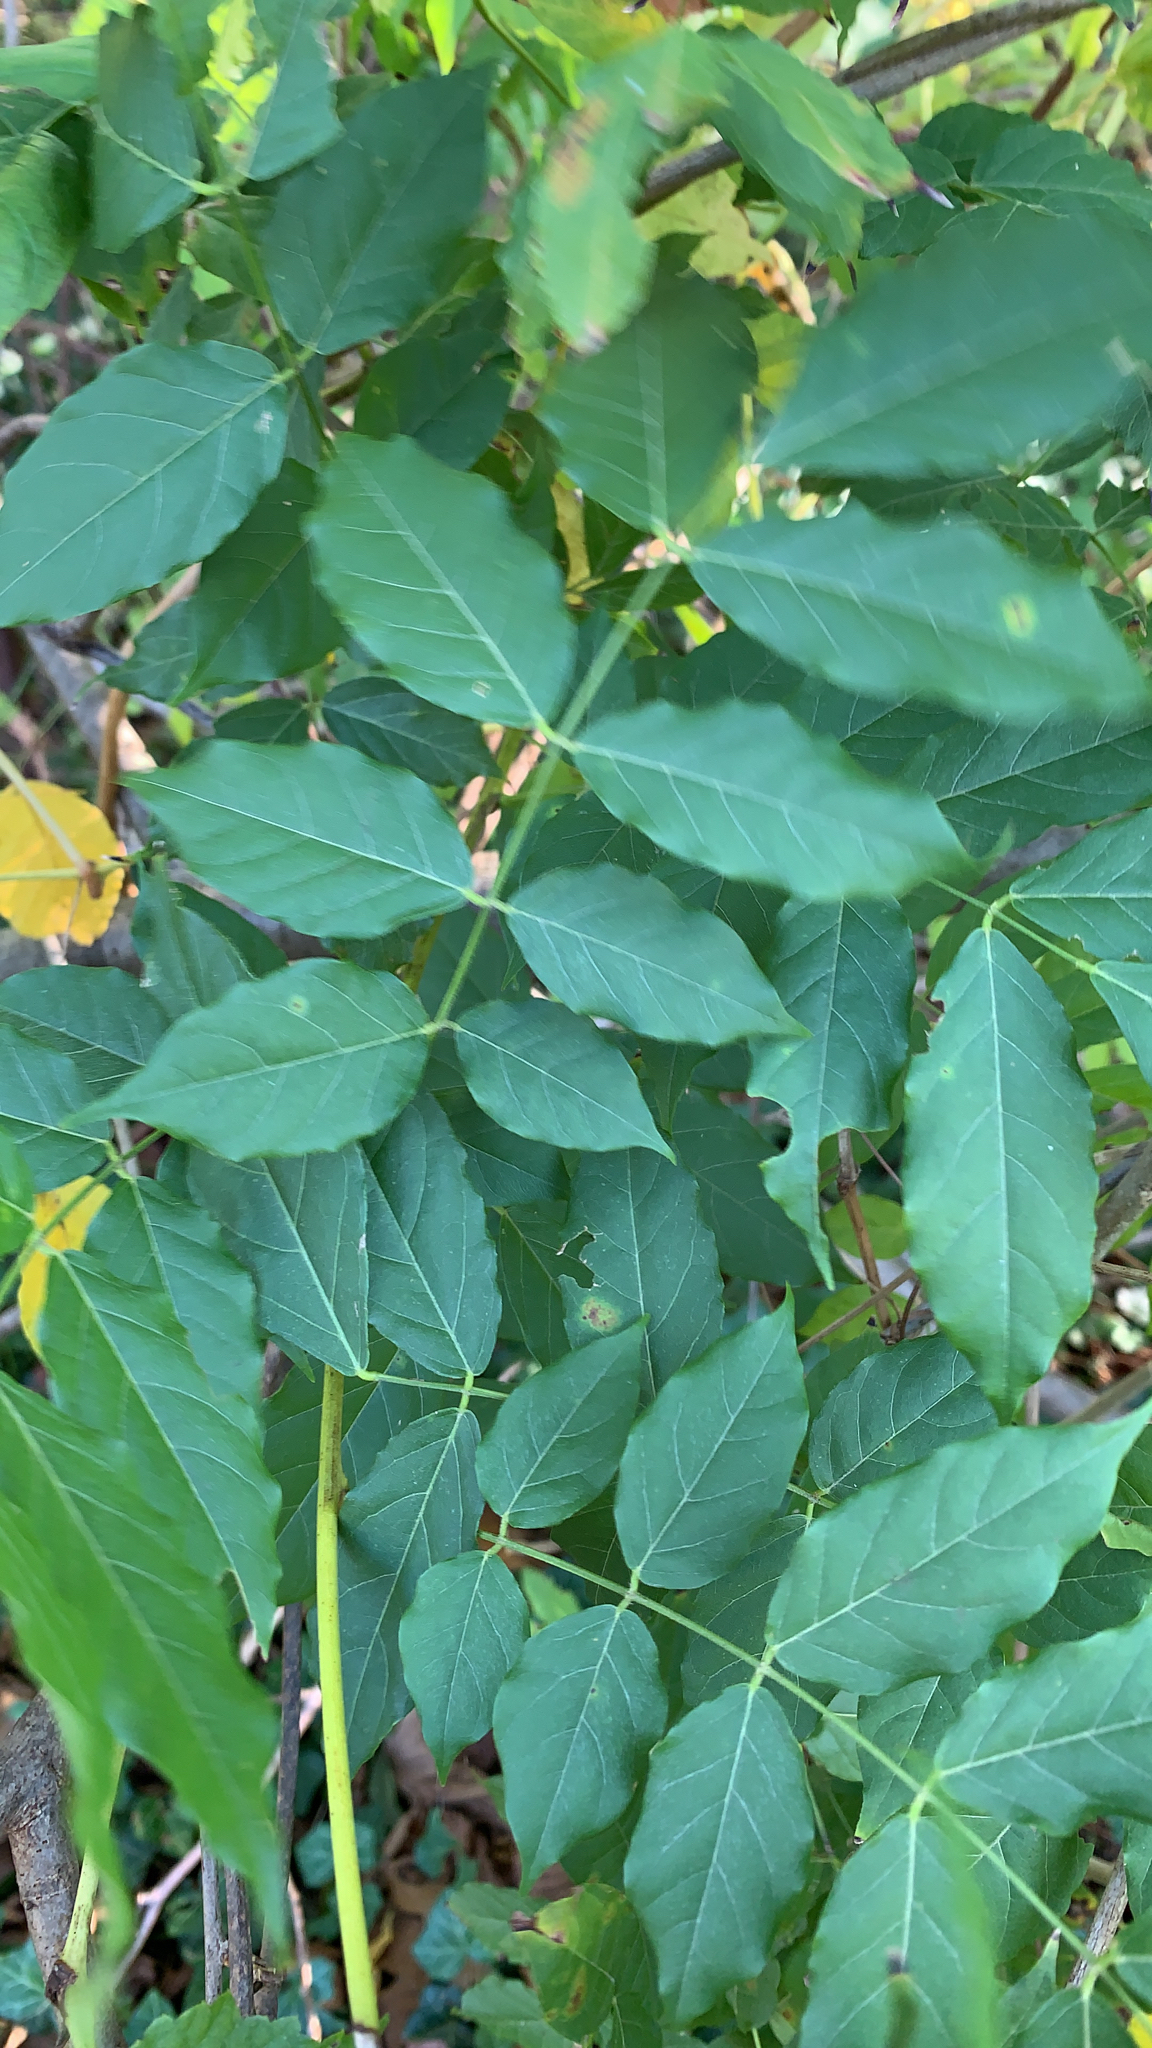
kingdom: Plantae
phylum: Tracheophyta
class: Magnoliopsida
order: Fabales
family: Fabaceae
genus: Wisteria
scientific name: Wisteria sinensis
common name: Chinese wisteria
